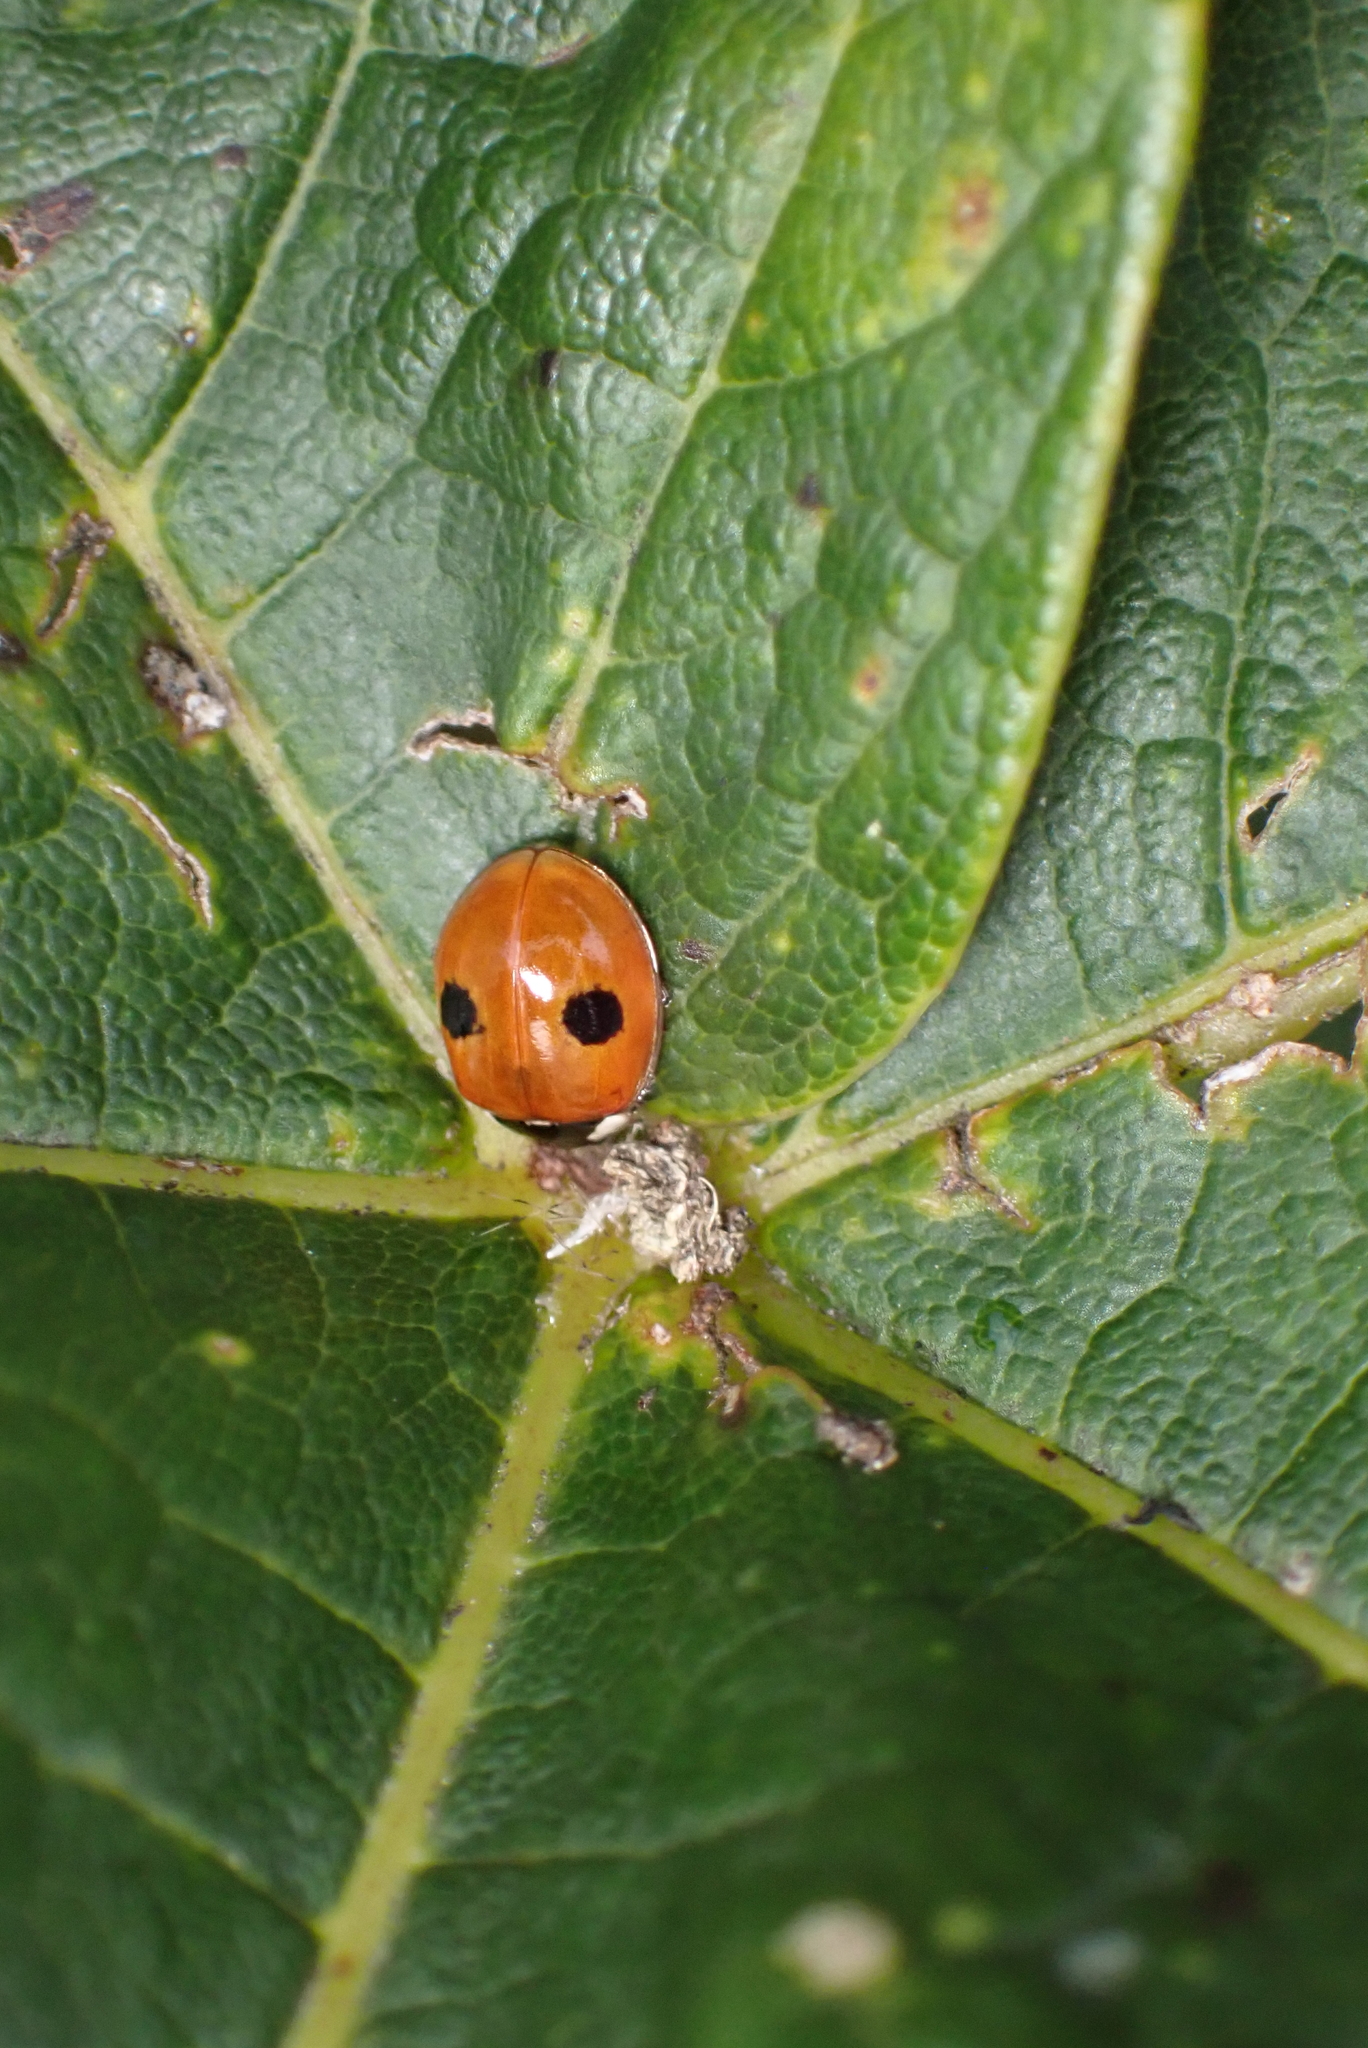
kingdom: Animalia
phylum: Arthropoda
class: Insecta
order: Coleoptera
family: Coccinellidae
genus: Adalia
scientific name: Adalia bipunctata
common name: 2-spot ladybird
